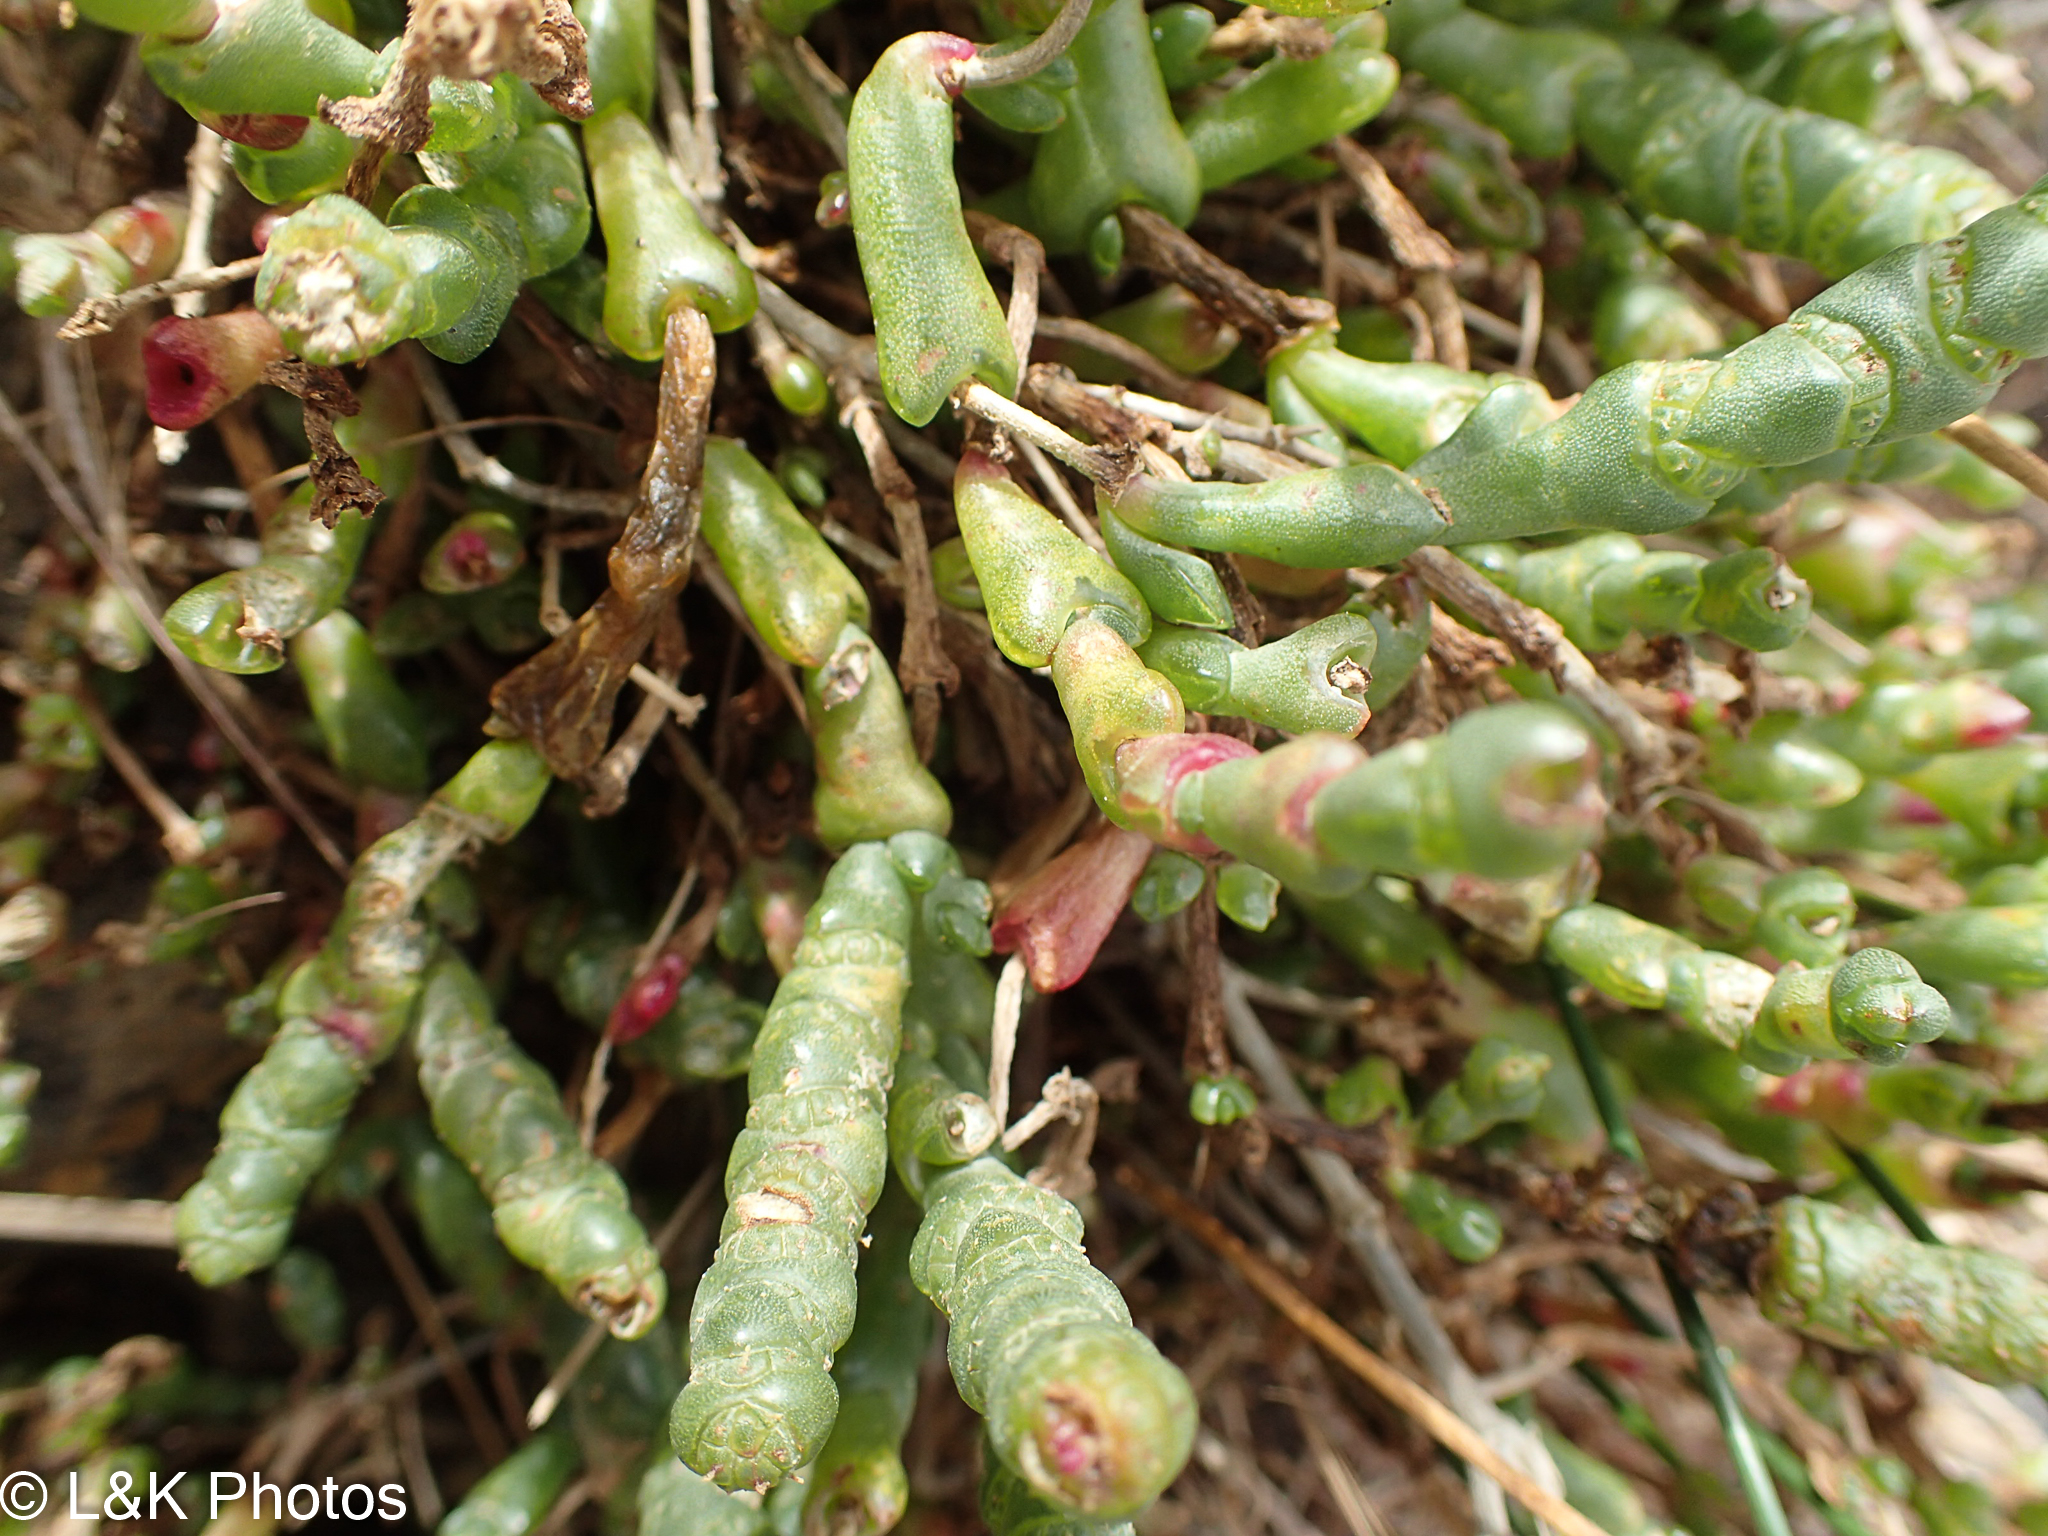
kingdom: Plantae
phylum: Tracheophyta
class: Magnoliopsida
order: Caryophyllales
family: Amaranthaceae
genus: Salicornia
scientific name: Salicornia quinqueflora
